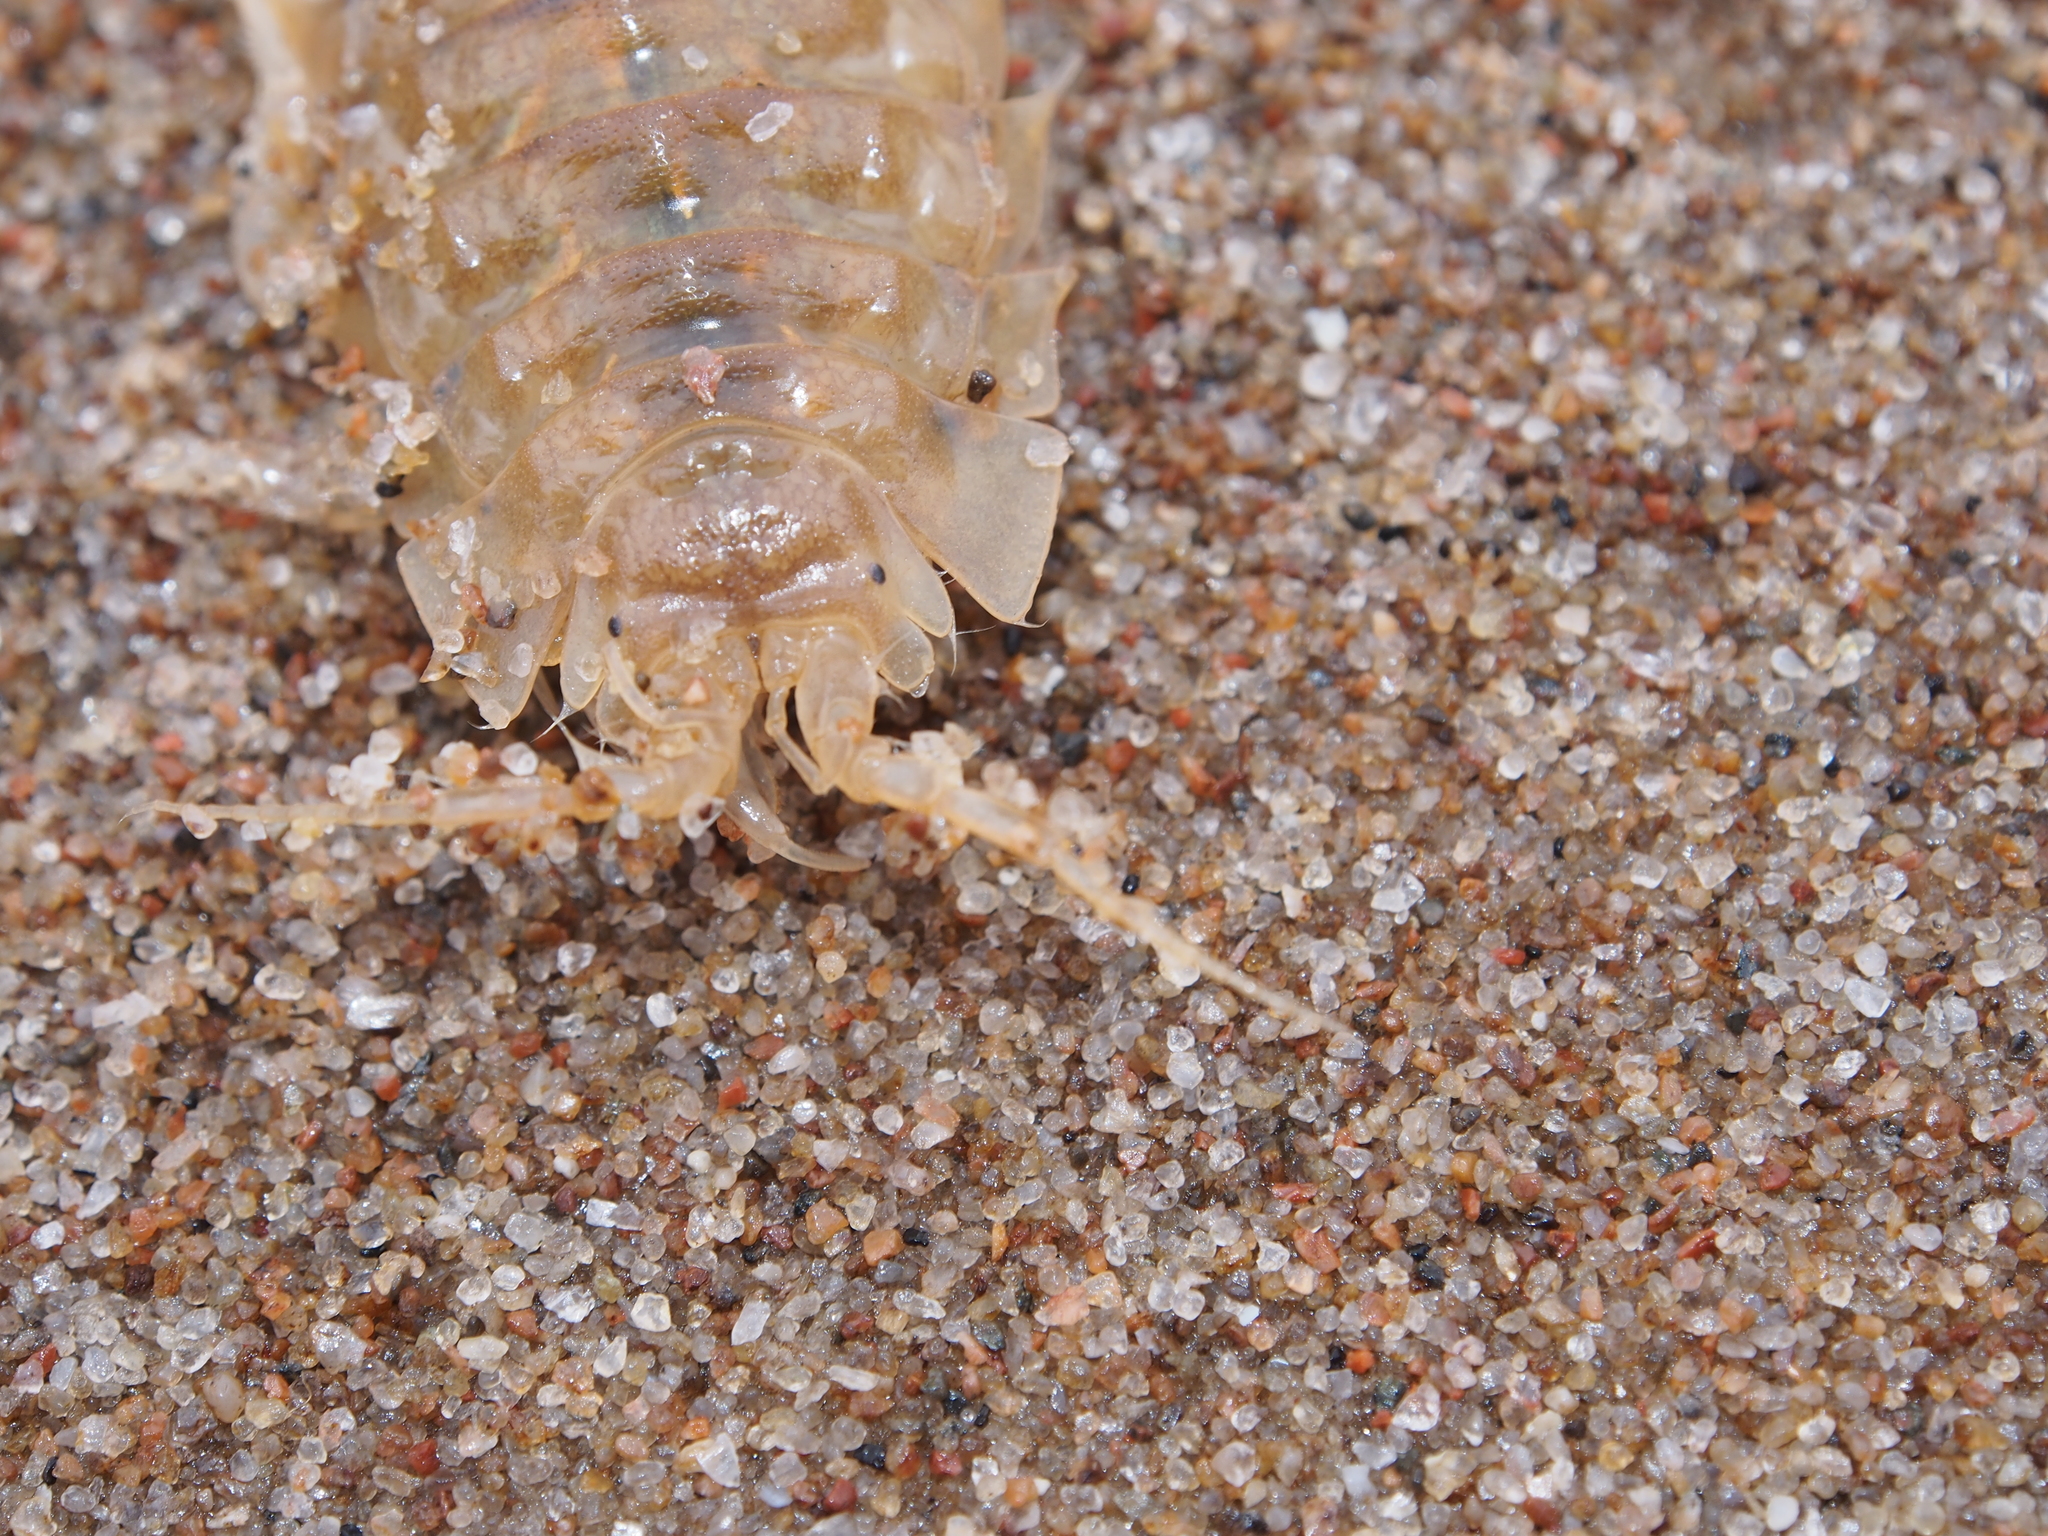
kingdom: Animalia
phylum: Arthropoda
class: Malacostraca
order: Isopoda
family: Chaetiliidae
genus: Saduria
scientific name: Saduria entomon
